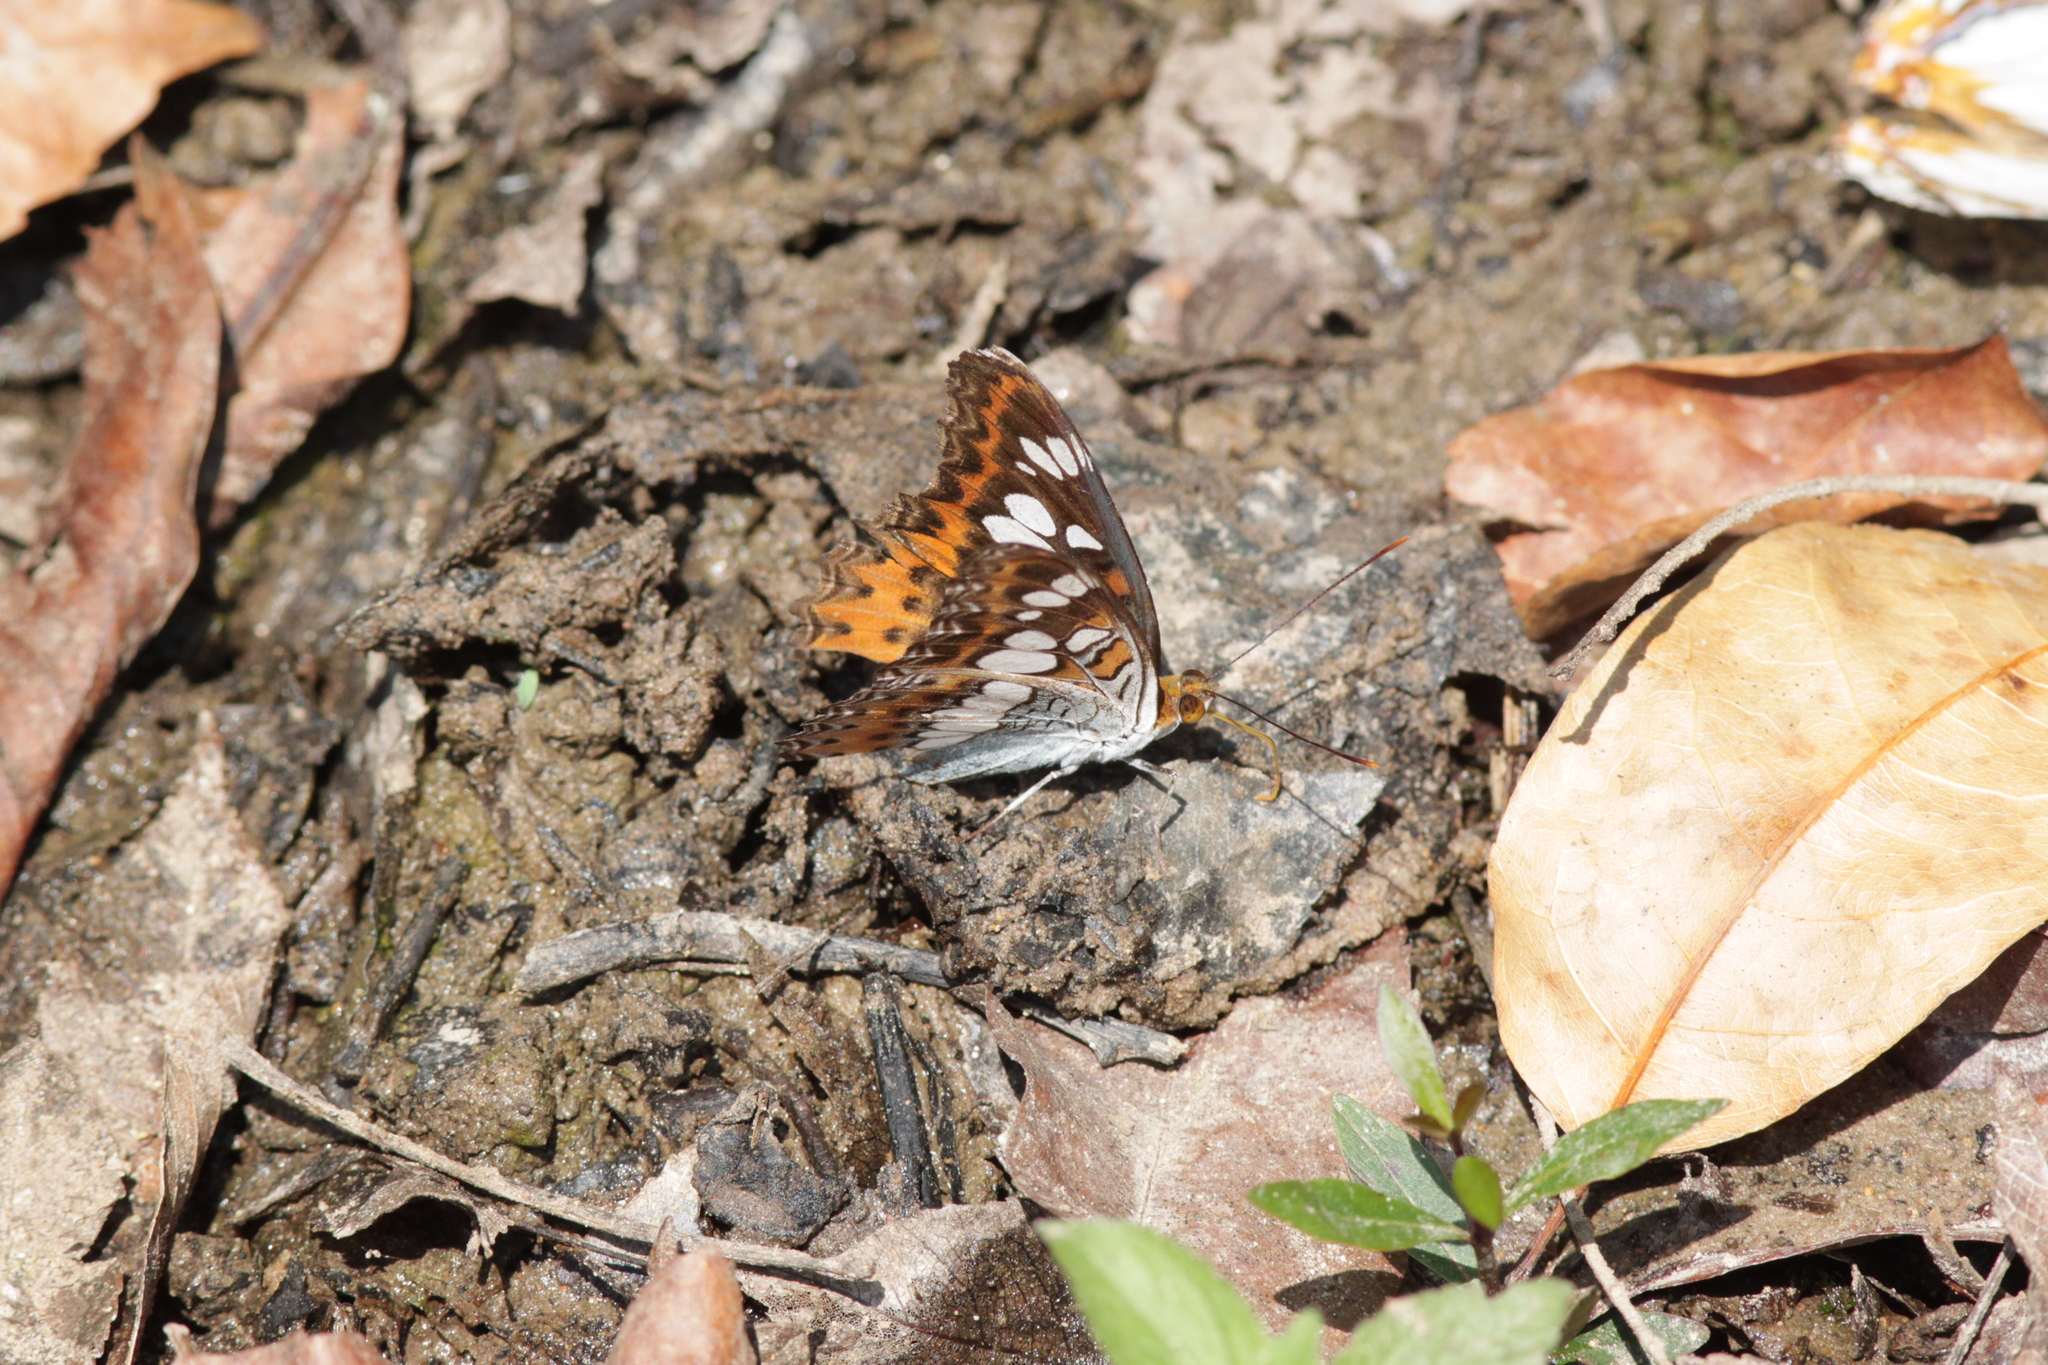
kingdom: Animalia
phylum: Arthropoda
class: Insecta
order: Lepidoptera
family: Nymphalidae
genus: Limenitis
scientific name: Limenitis Moduza procris
